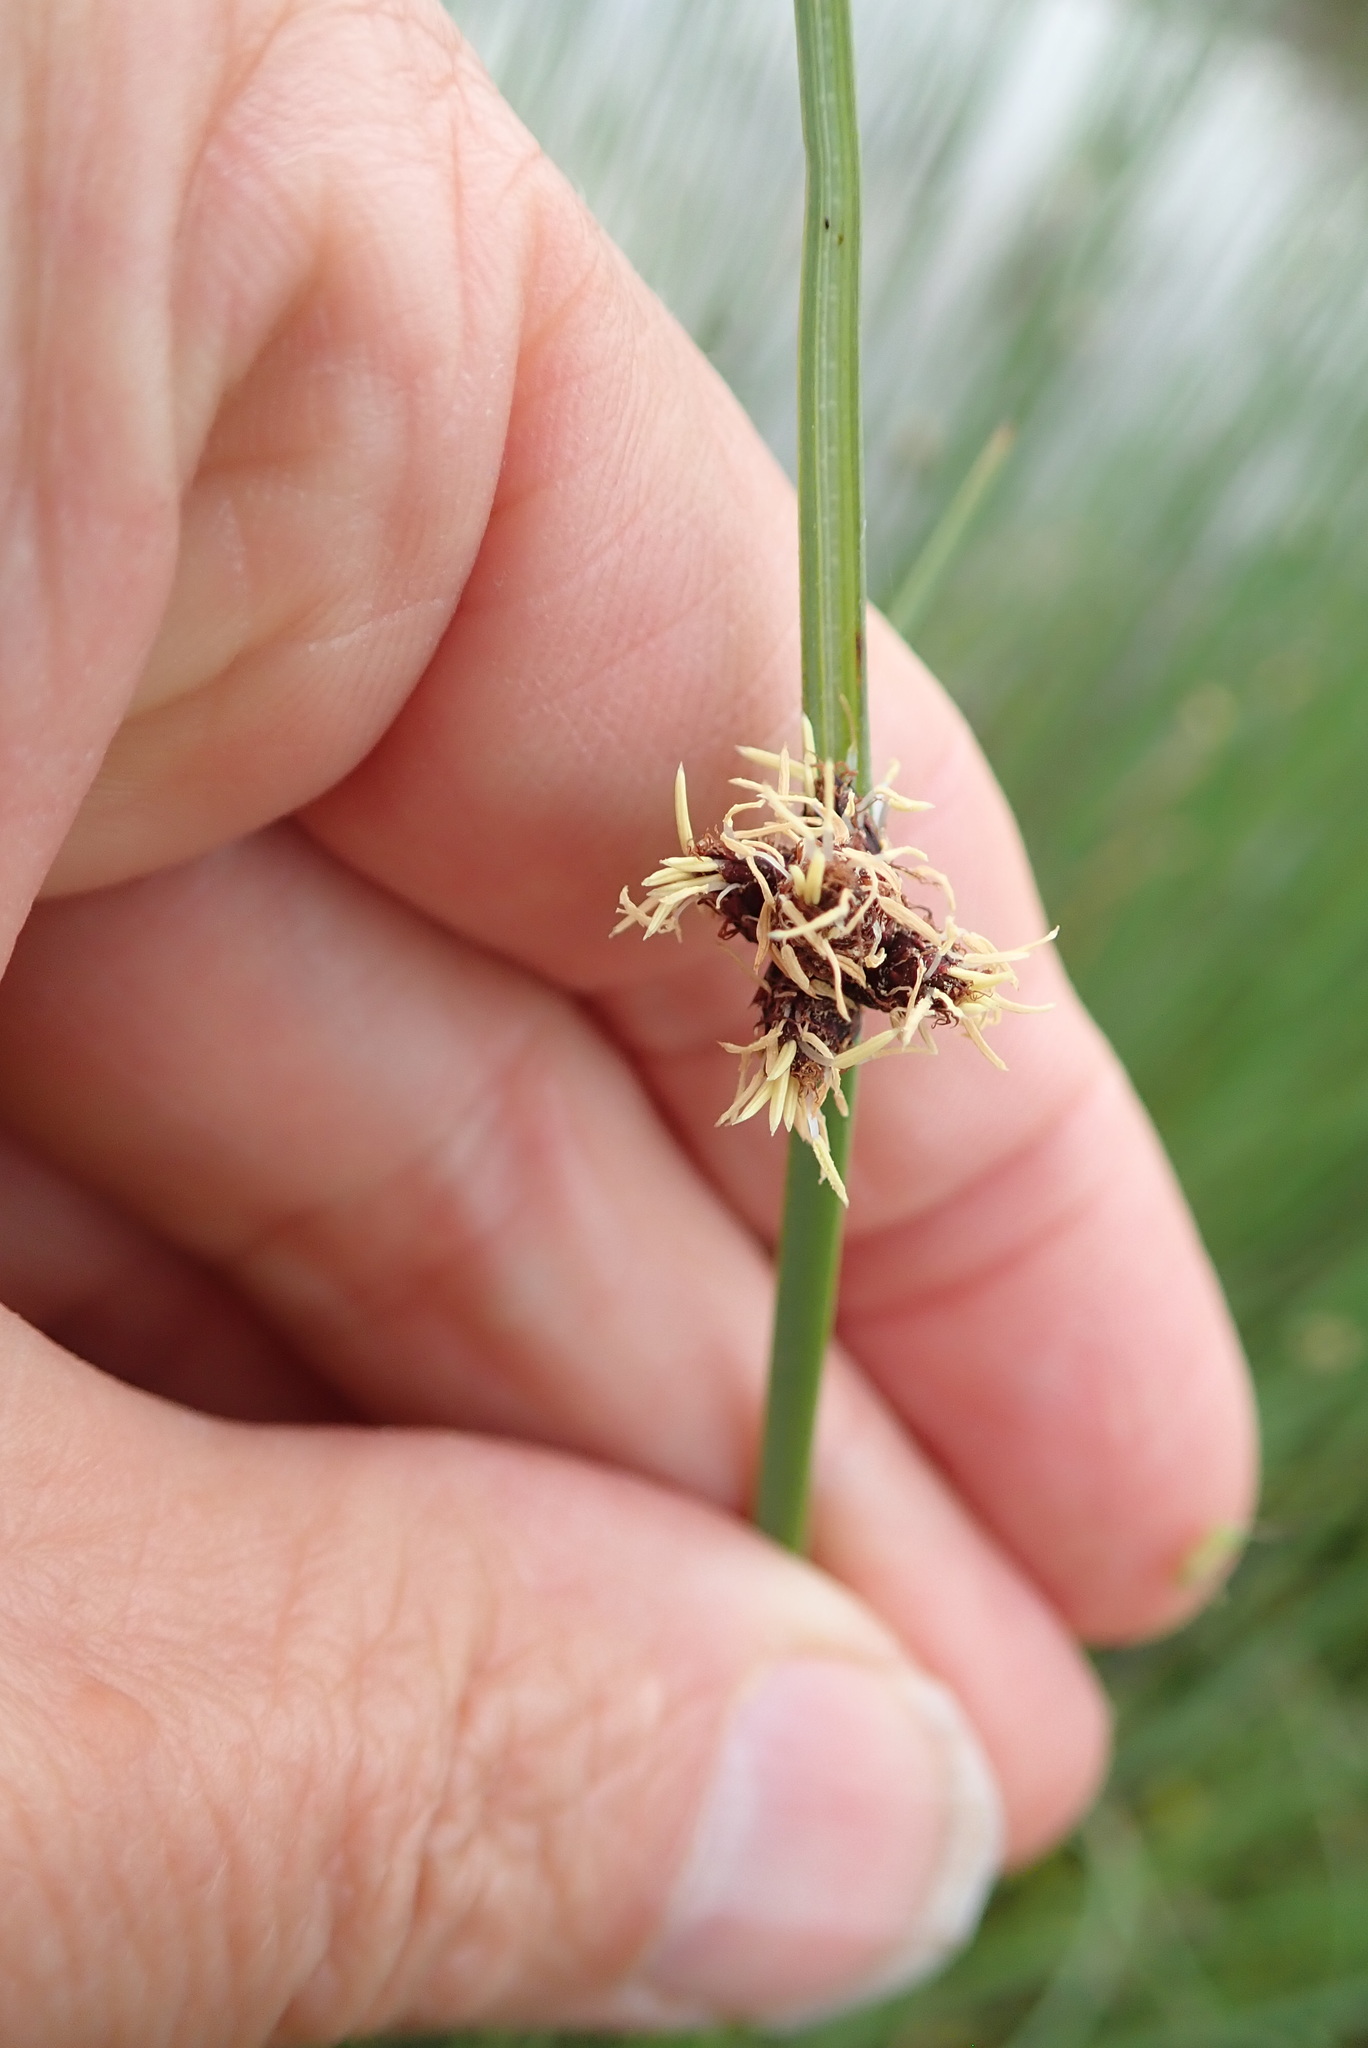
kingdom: Plantae
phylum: Tracheophyta
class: Liliopsida
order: Poales
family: Cyperaceae
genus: Schoenoplectus
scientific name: Schoenoplectus pungens
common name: Sharp club-rush
